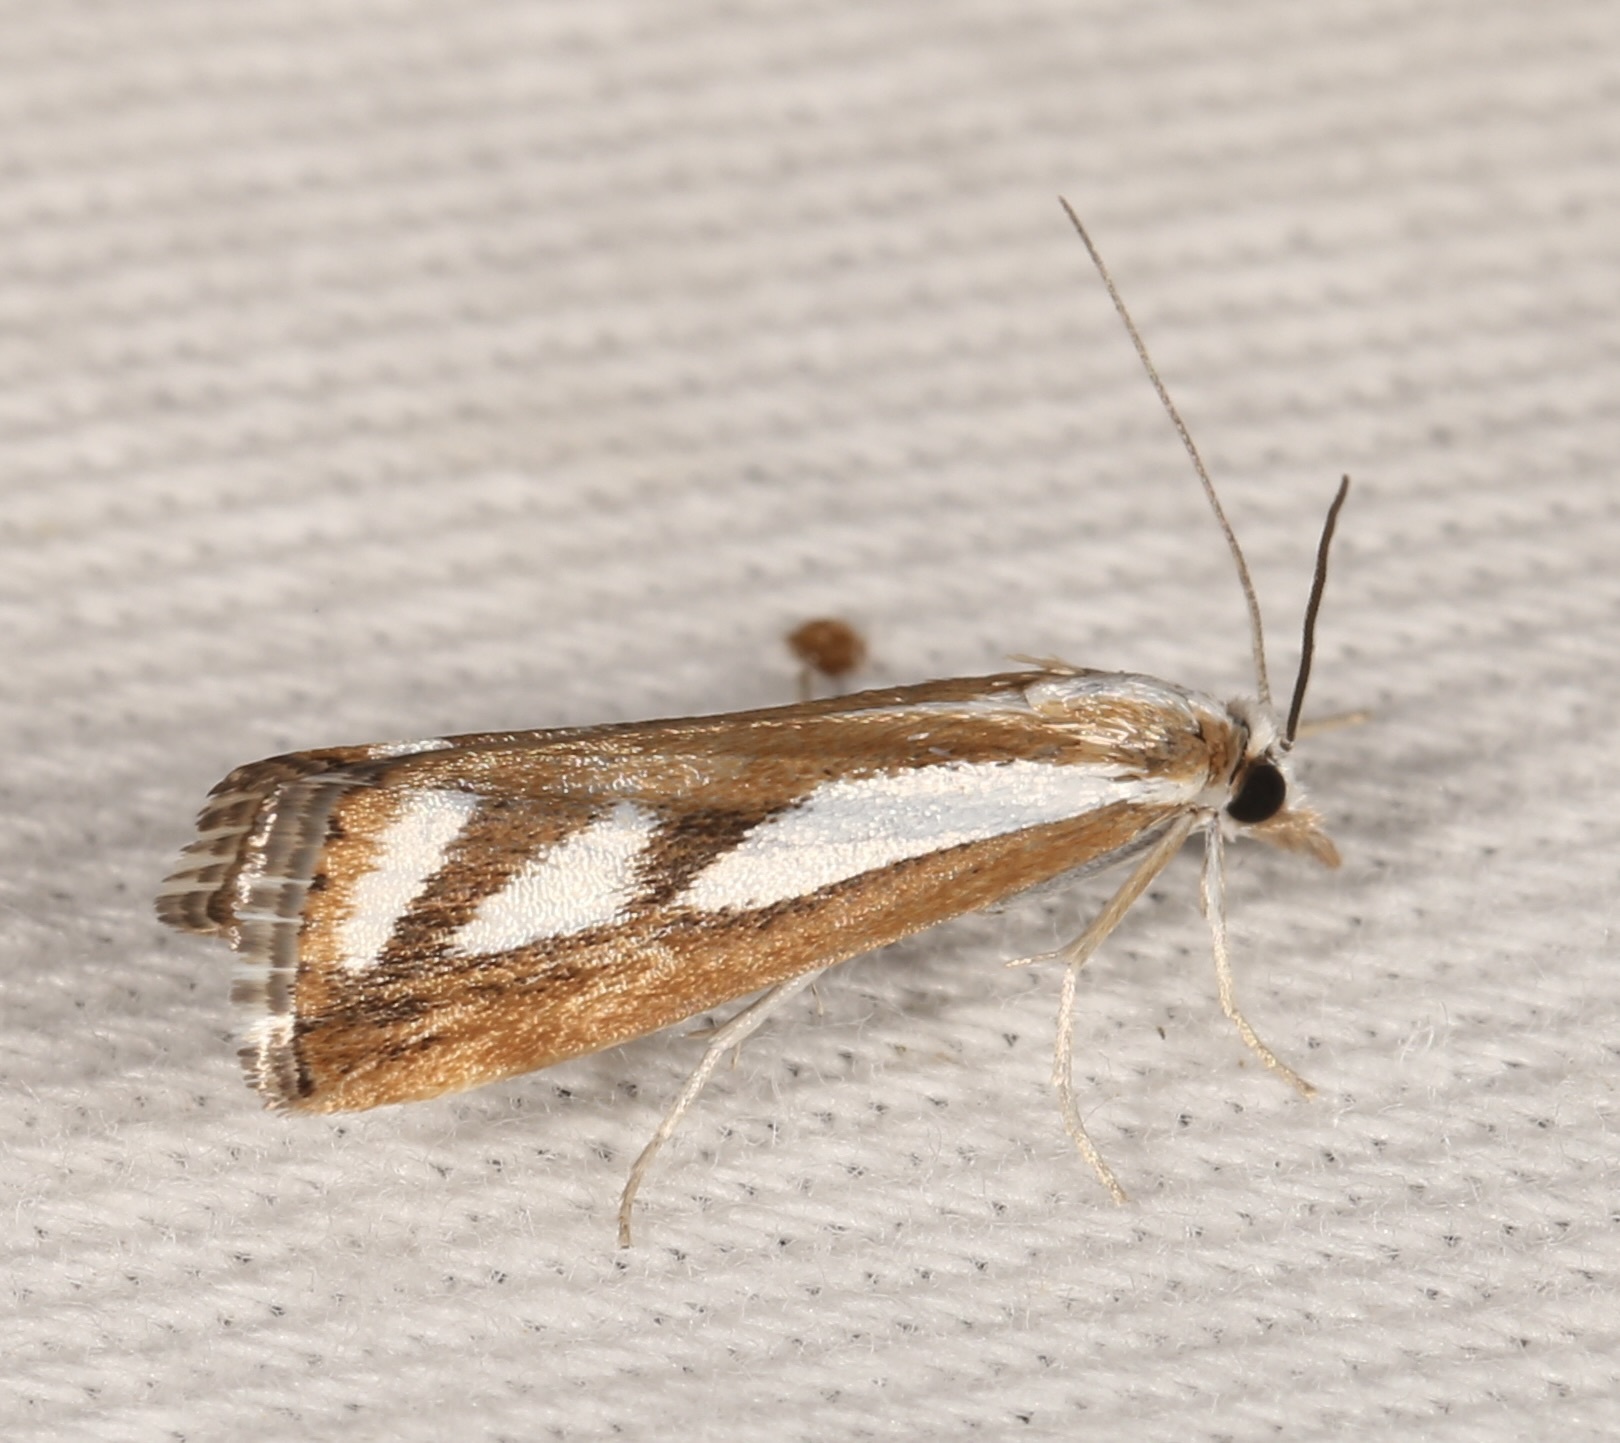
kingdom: Animalia
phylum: Arthropoda
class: Insecta
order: Lepidoptera
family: Crambidae
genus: Catoptria
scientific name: Catoptria latiradiellus
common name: Two-banded catoptria moth
